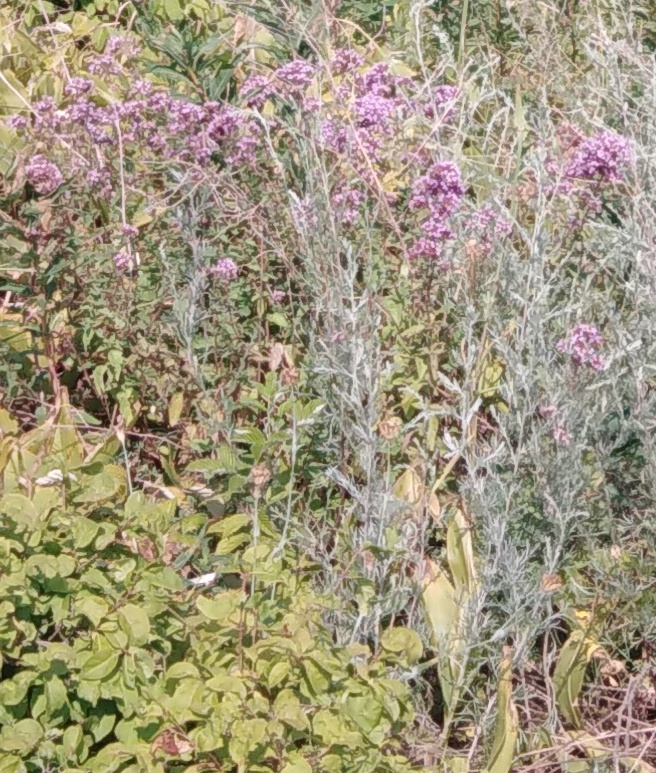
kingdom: Plantae
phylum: Tracheophyta
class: Magnoliopsida
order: Lamiales
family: Lamiaceae
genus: Origanum
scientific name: Origanum vulgare
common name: Wild marjoram
